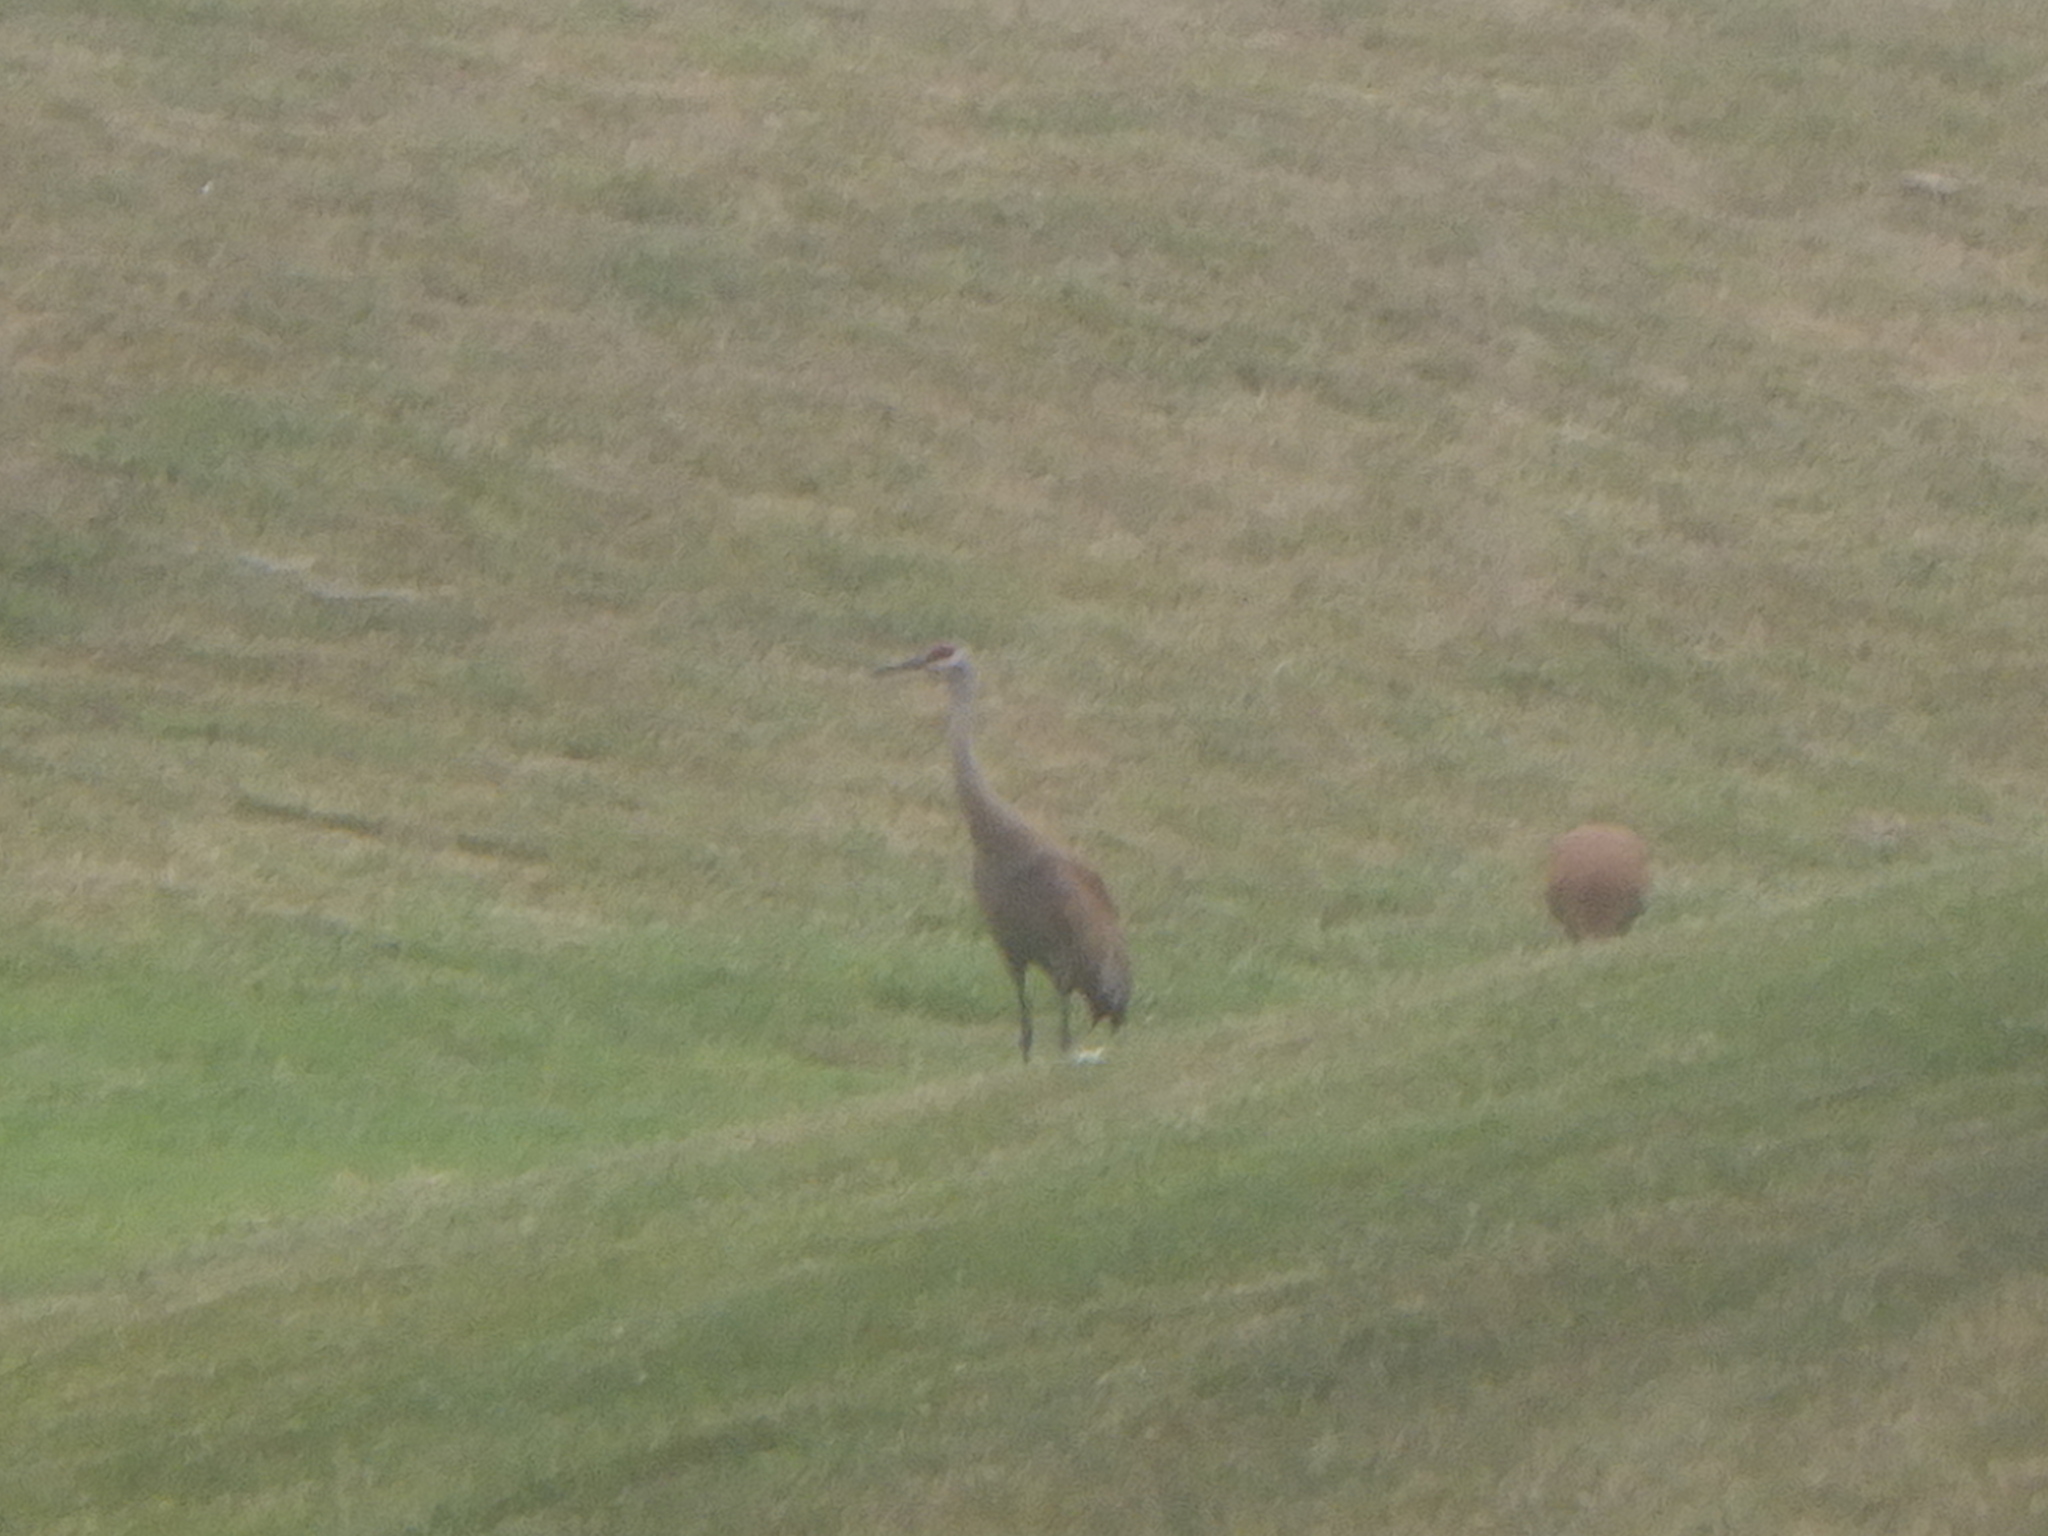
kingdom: Animalia
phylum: Chordata
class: Aves
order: Gruiformes
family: Gruidae
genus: Grus
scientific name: Grus canadensis
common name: Sandhill crane
